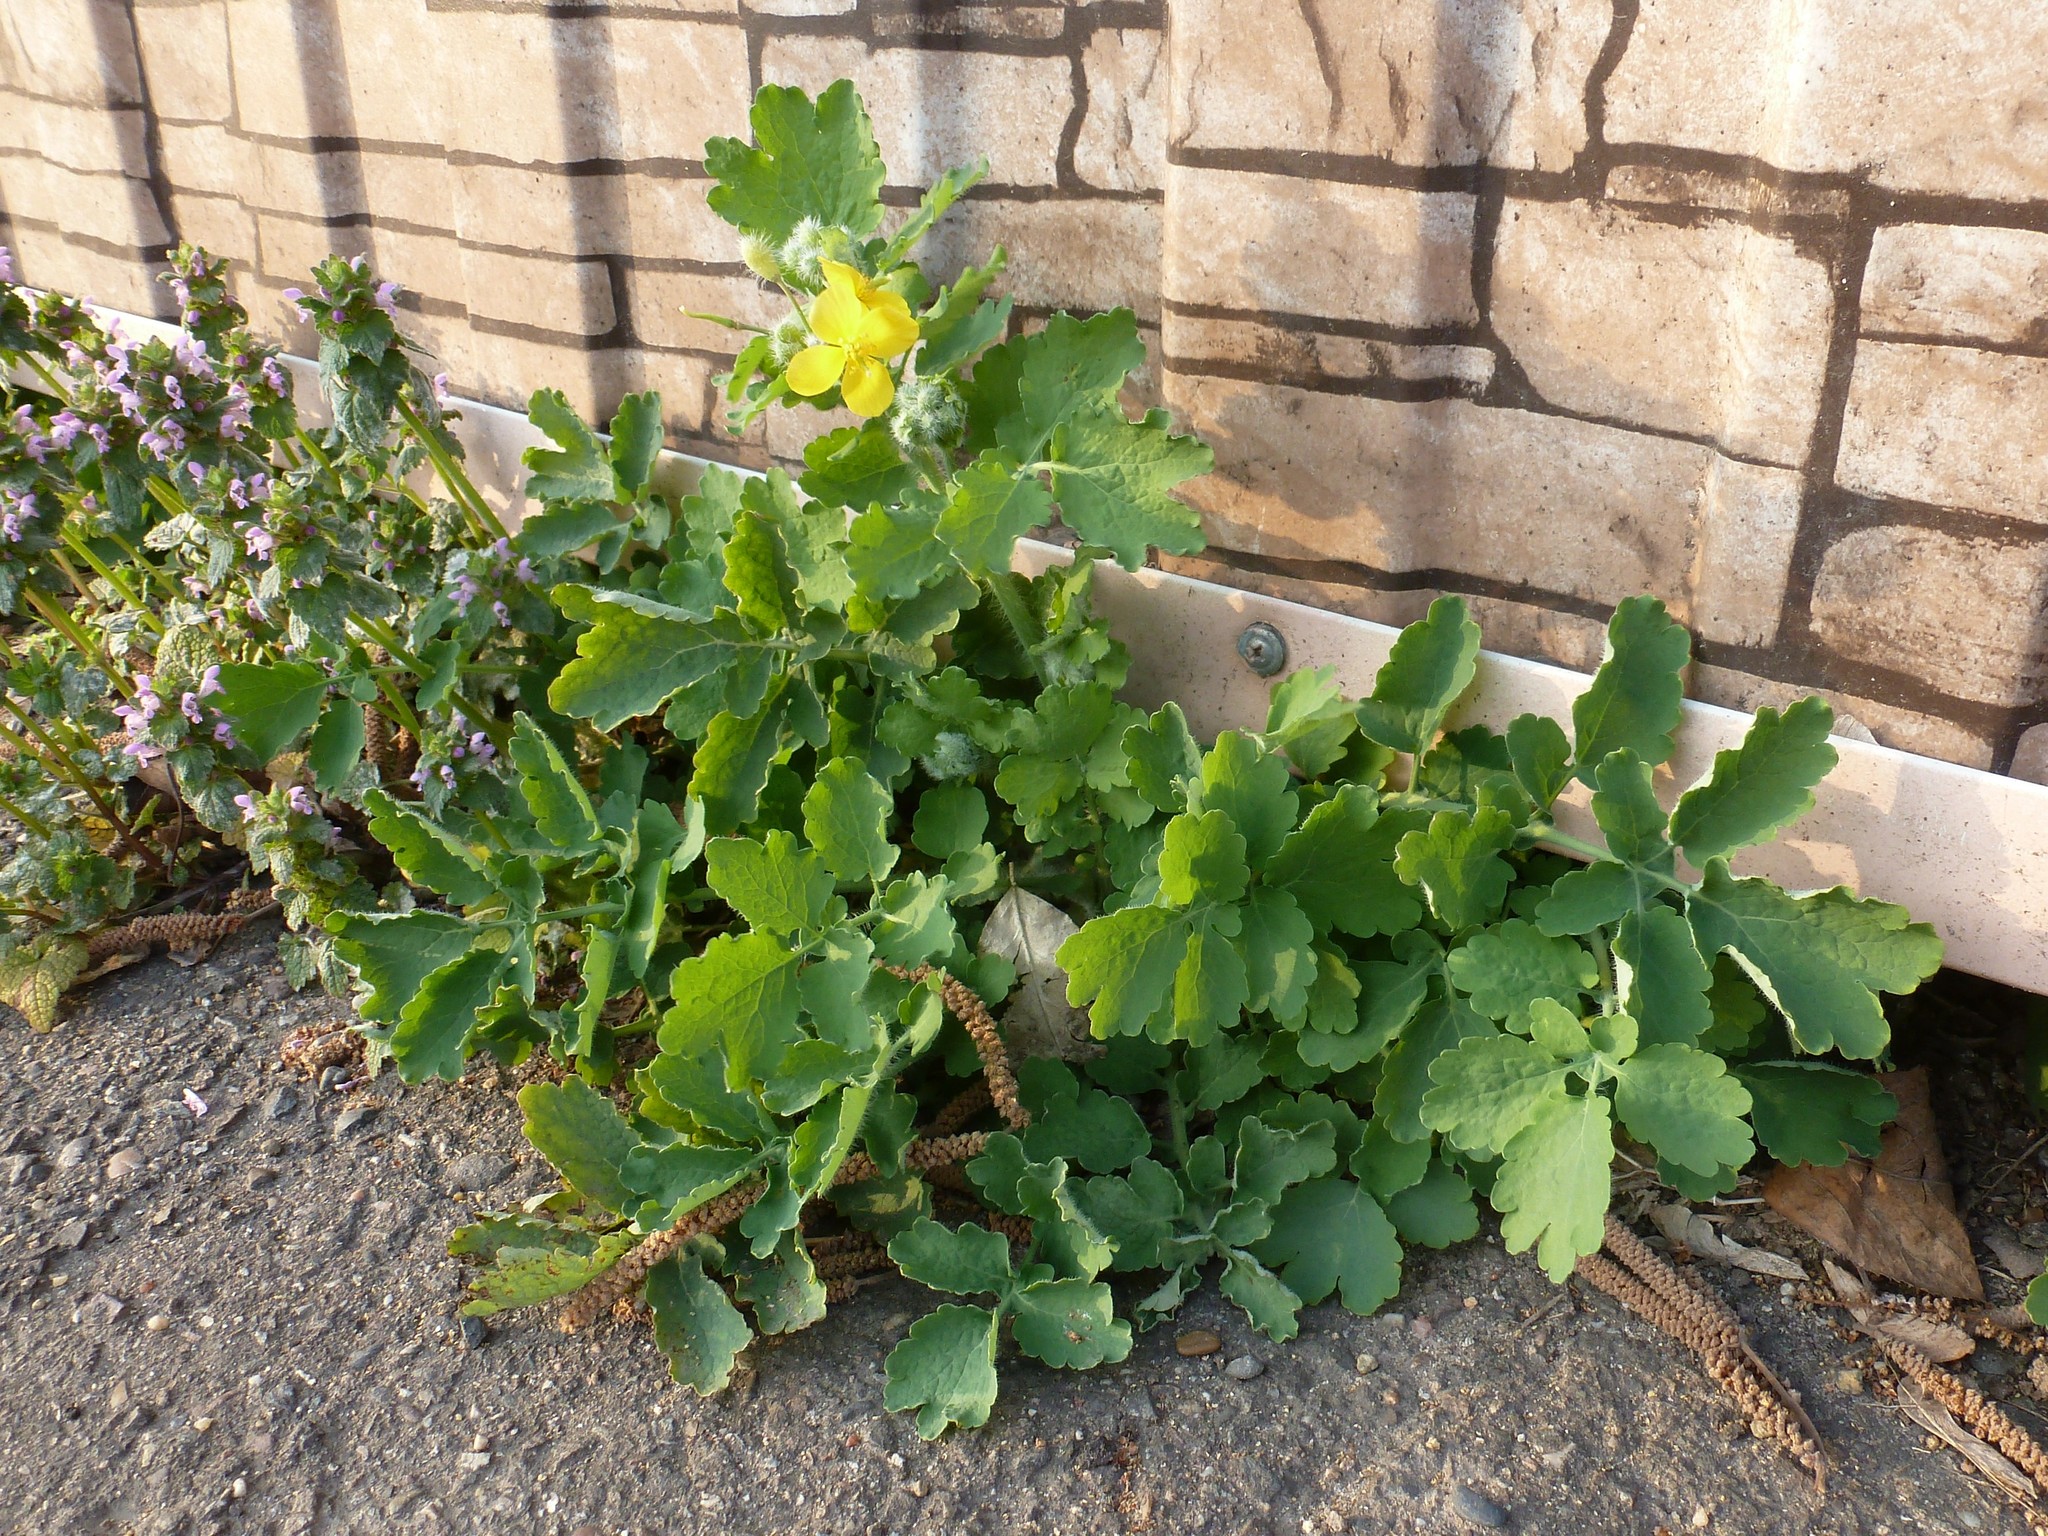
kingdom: Plantae
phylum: Tracheophyta
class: Magnoliopsida
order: Ranunculales
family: Papaveraceae
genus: Chelidonium
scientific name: Chelidonium majus
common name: Greater celandine
